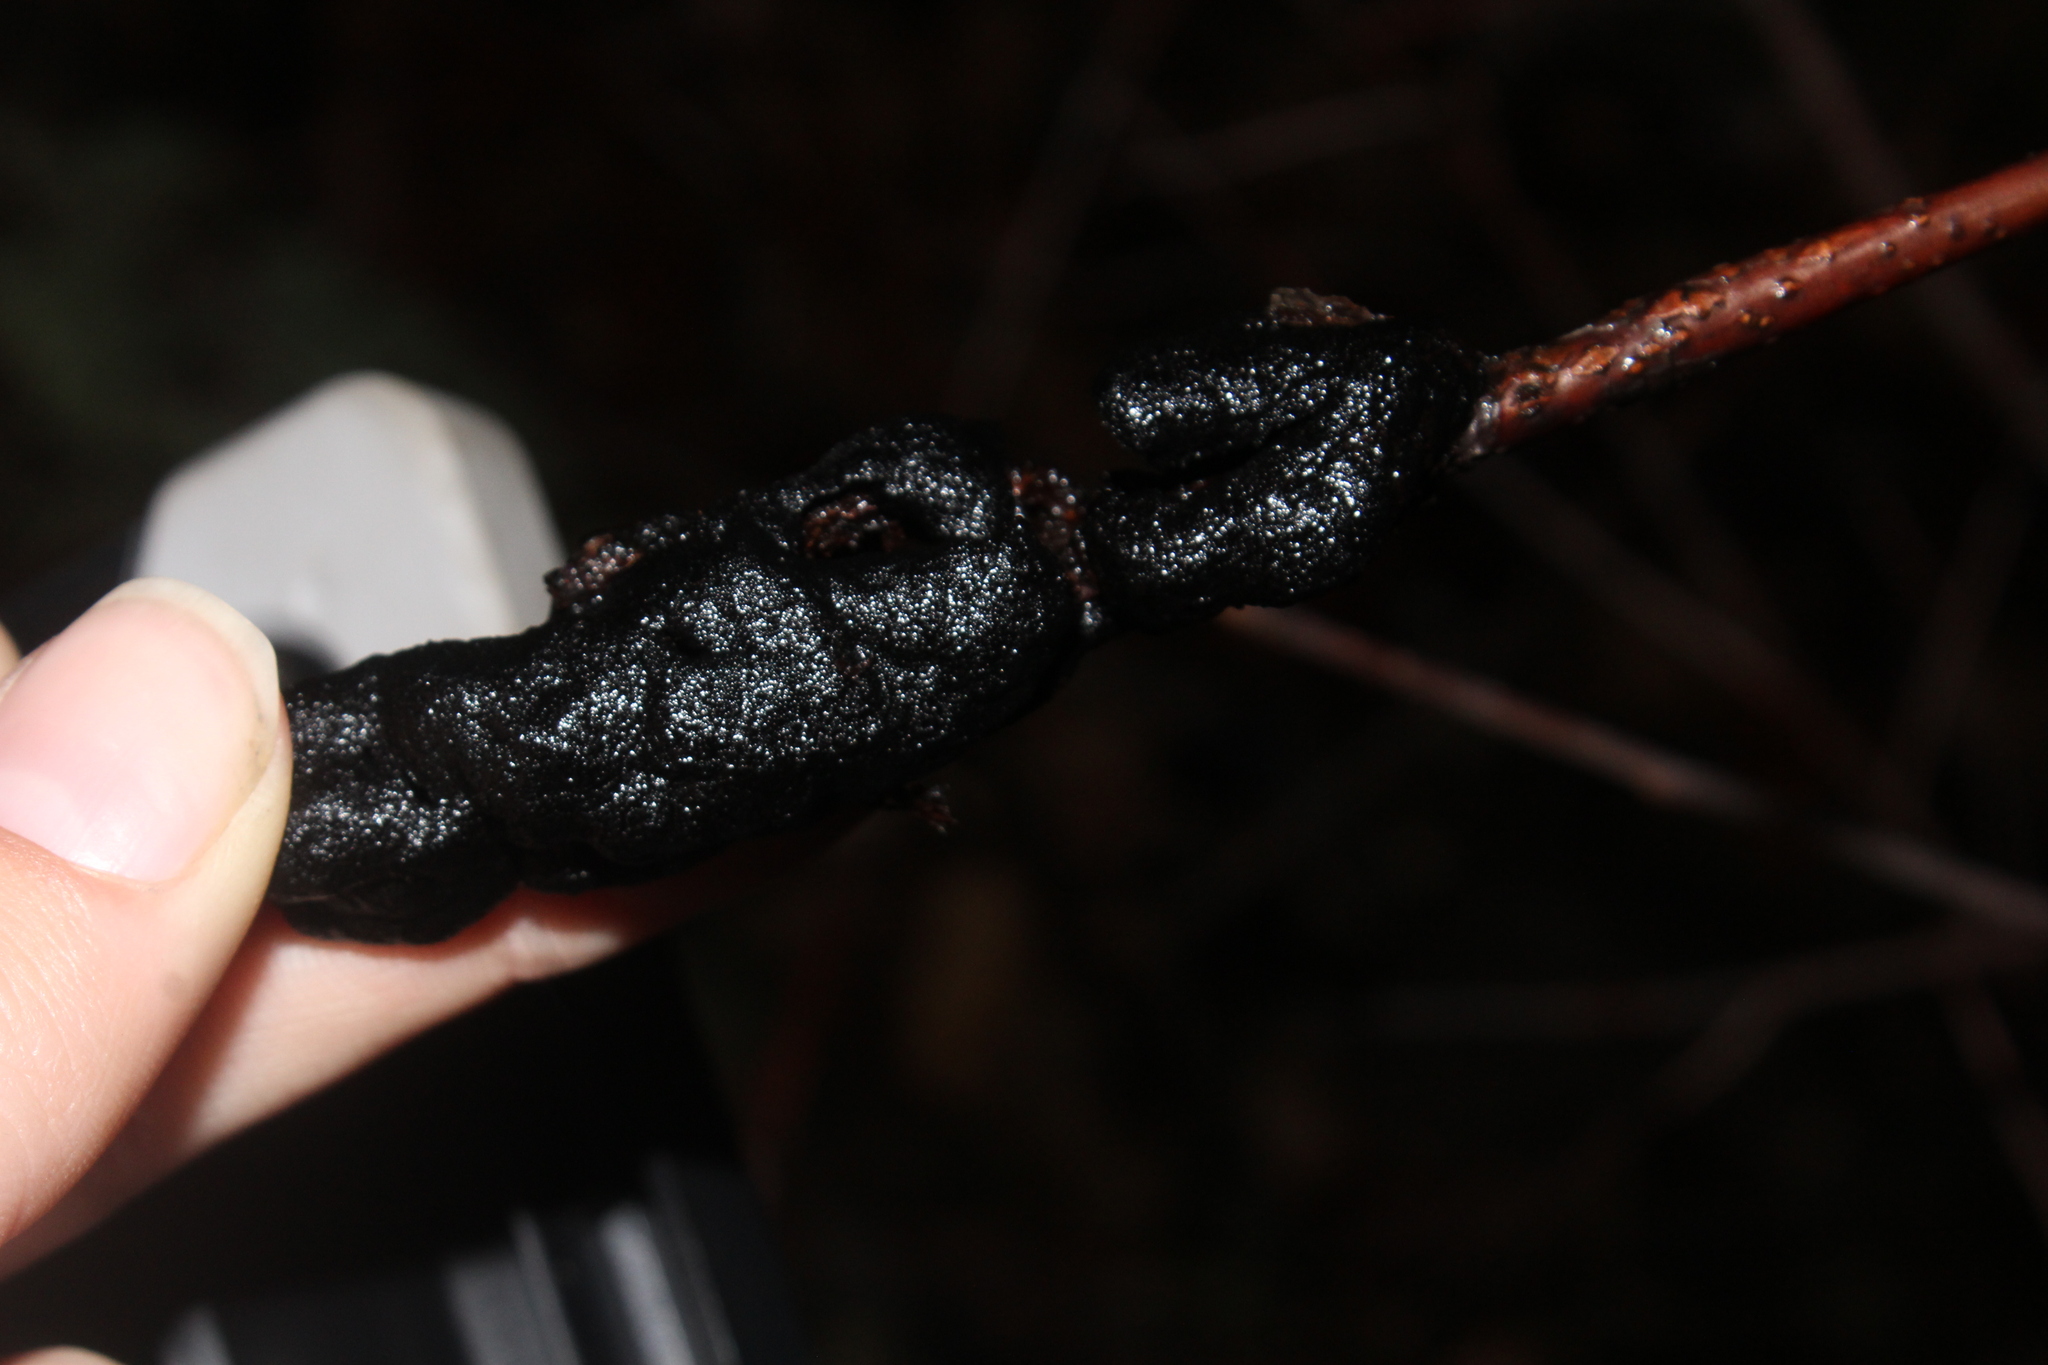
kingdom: Fungi
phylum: Ascomycota
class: Dothideomycetes
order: Venturiales
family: Venturiaceae
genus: Apiosporina
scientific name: Apiosporina morbosa
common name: Black knot
